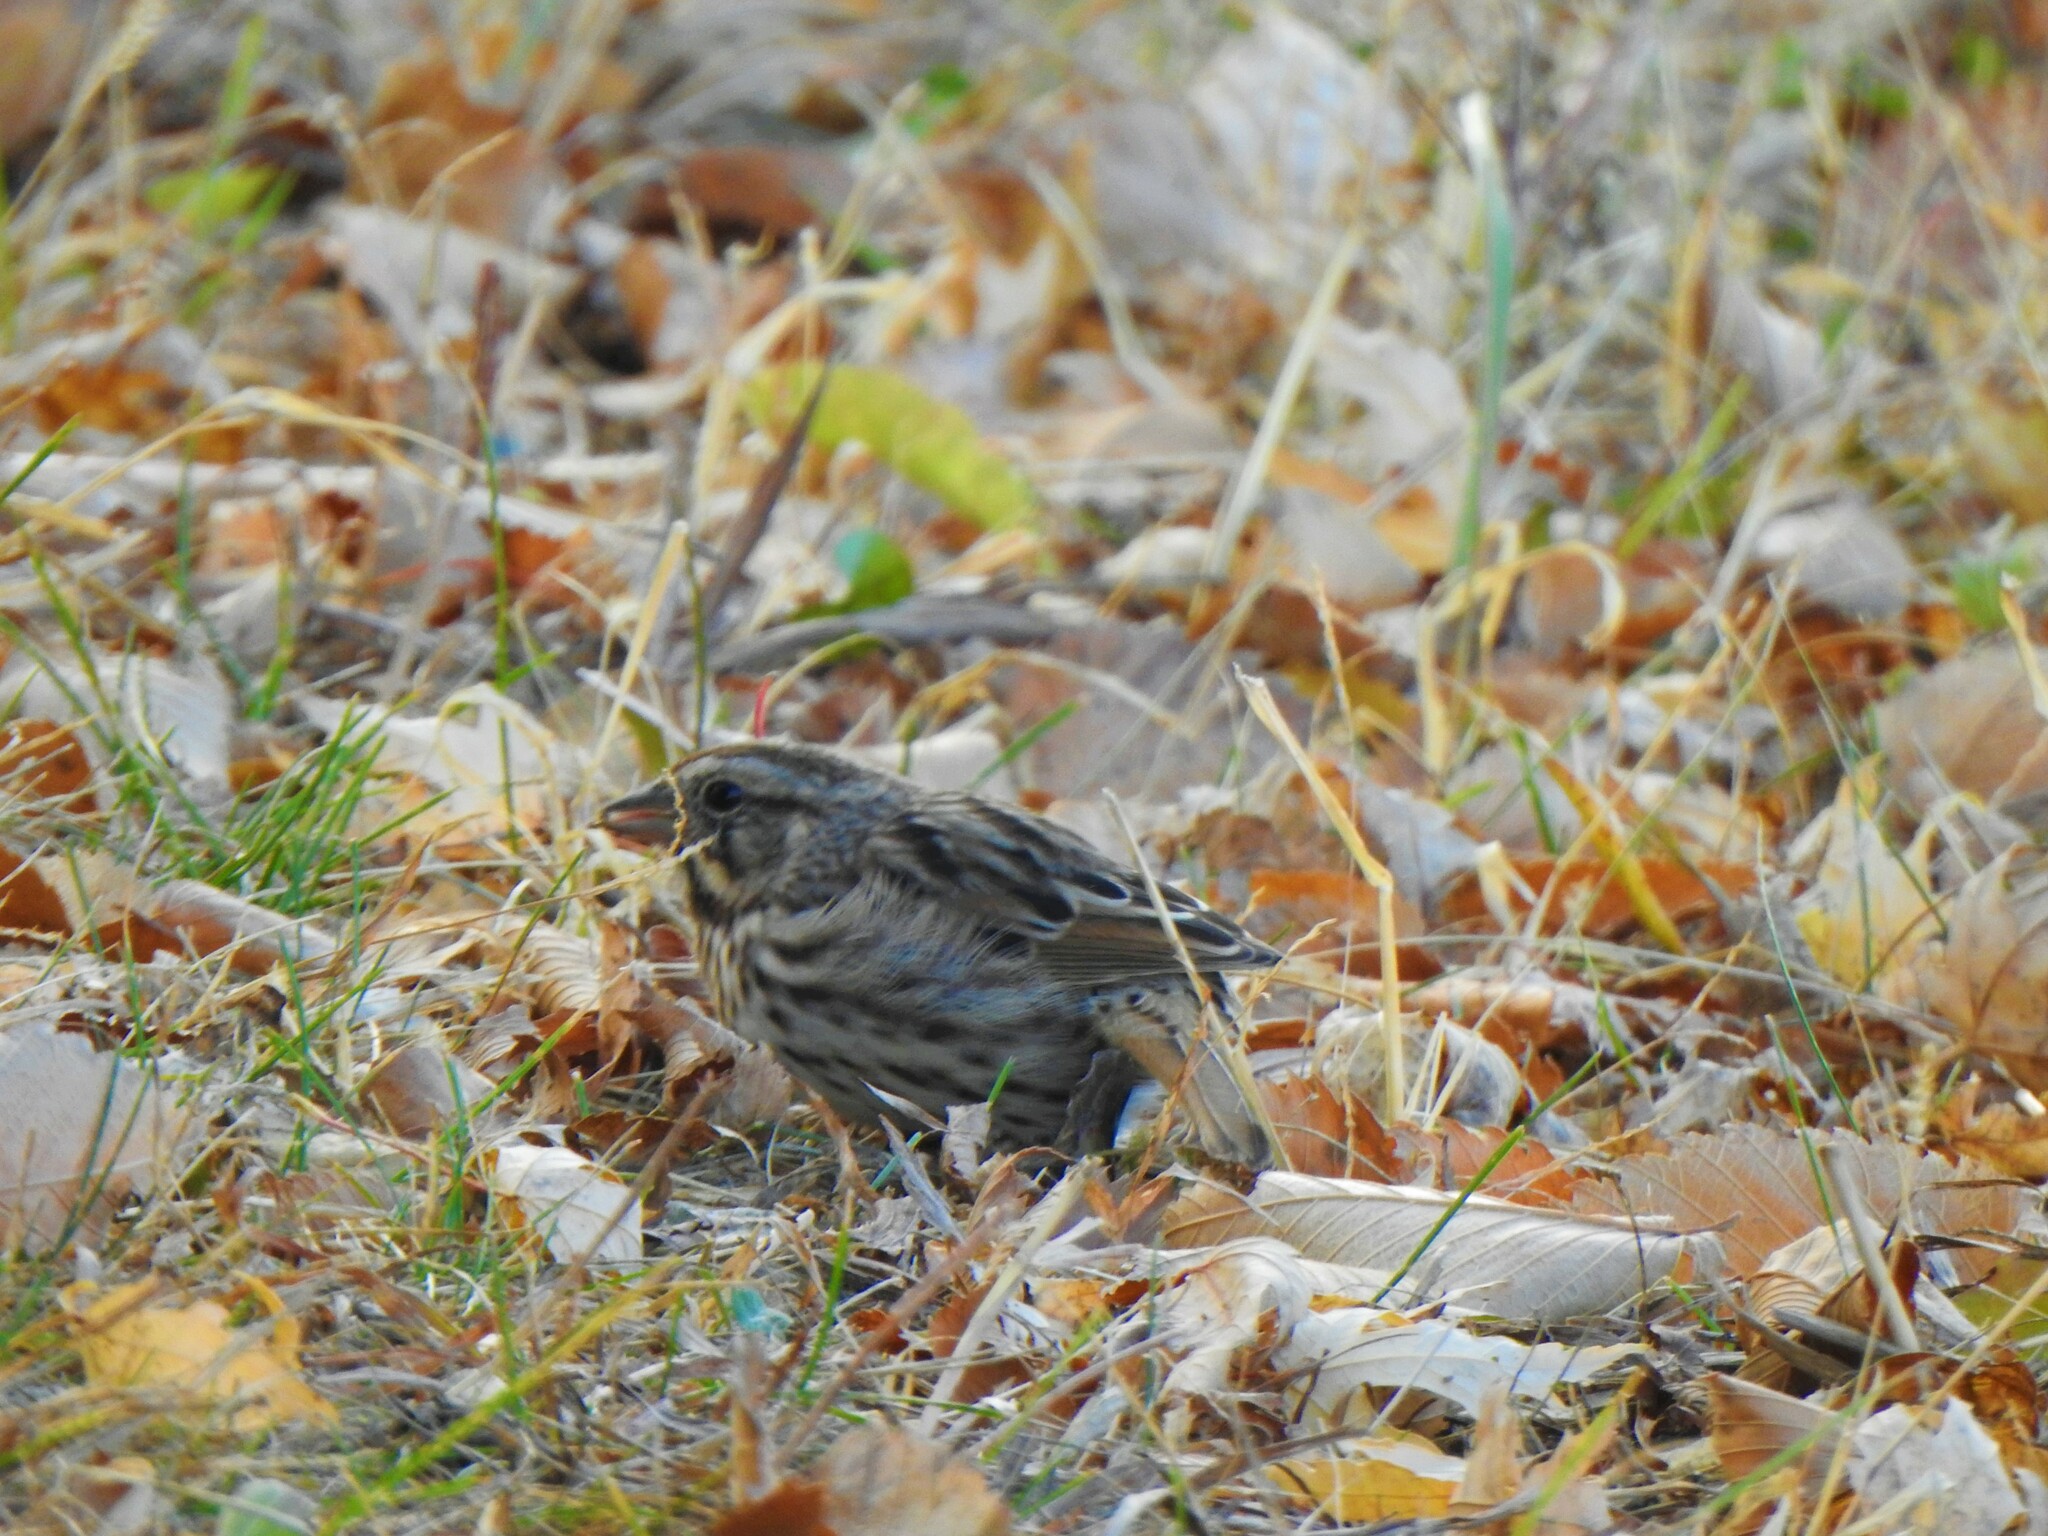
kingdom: Animalia
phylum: Chordata
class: Aves
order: Passeriformes
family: Passerellidae
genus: Melospiza
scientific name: Melospiza melodia
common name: Song sparrow
